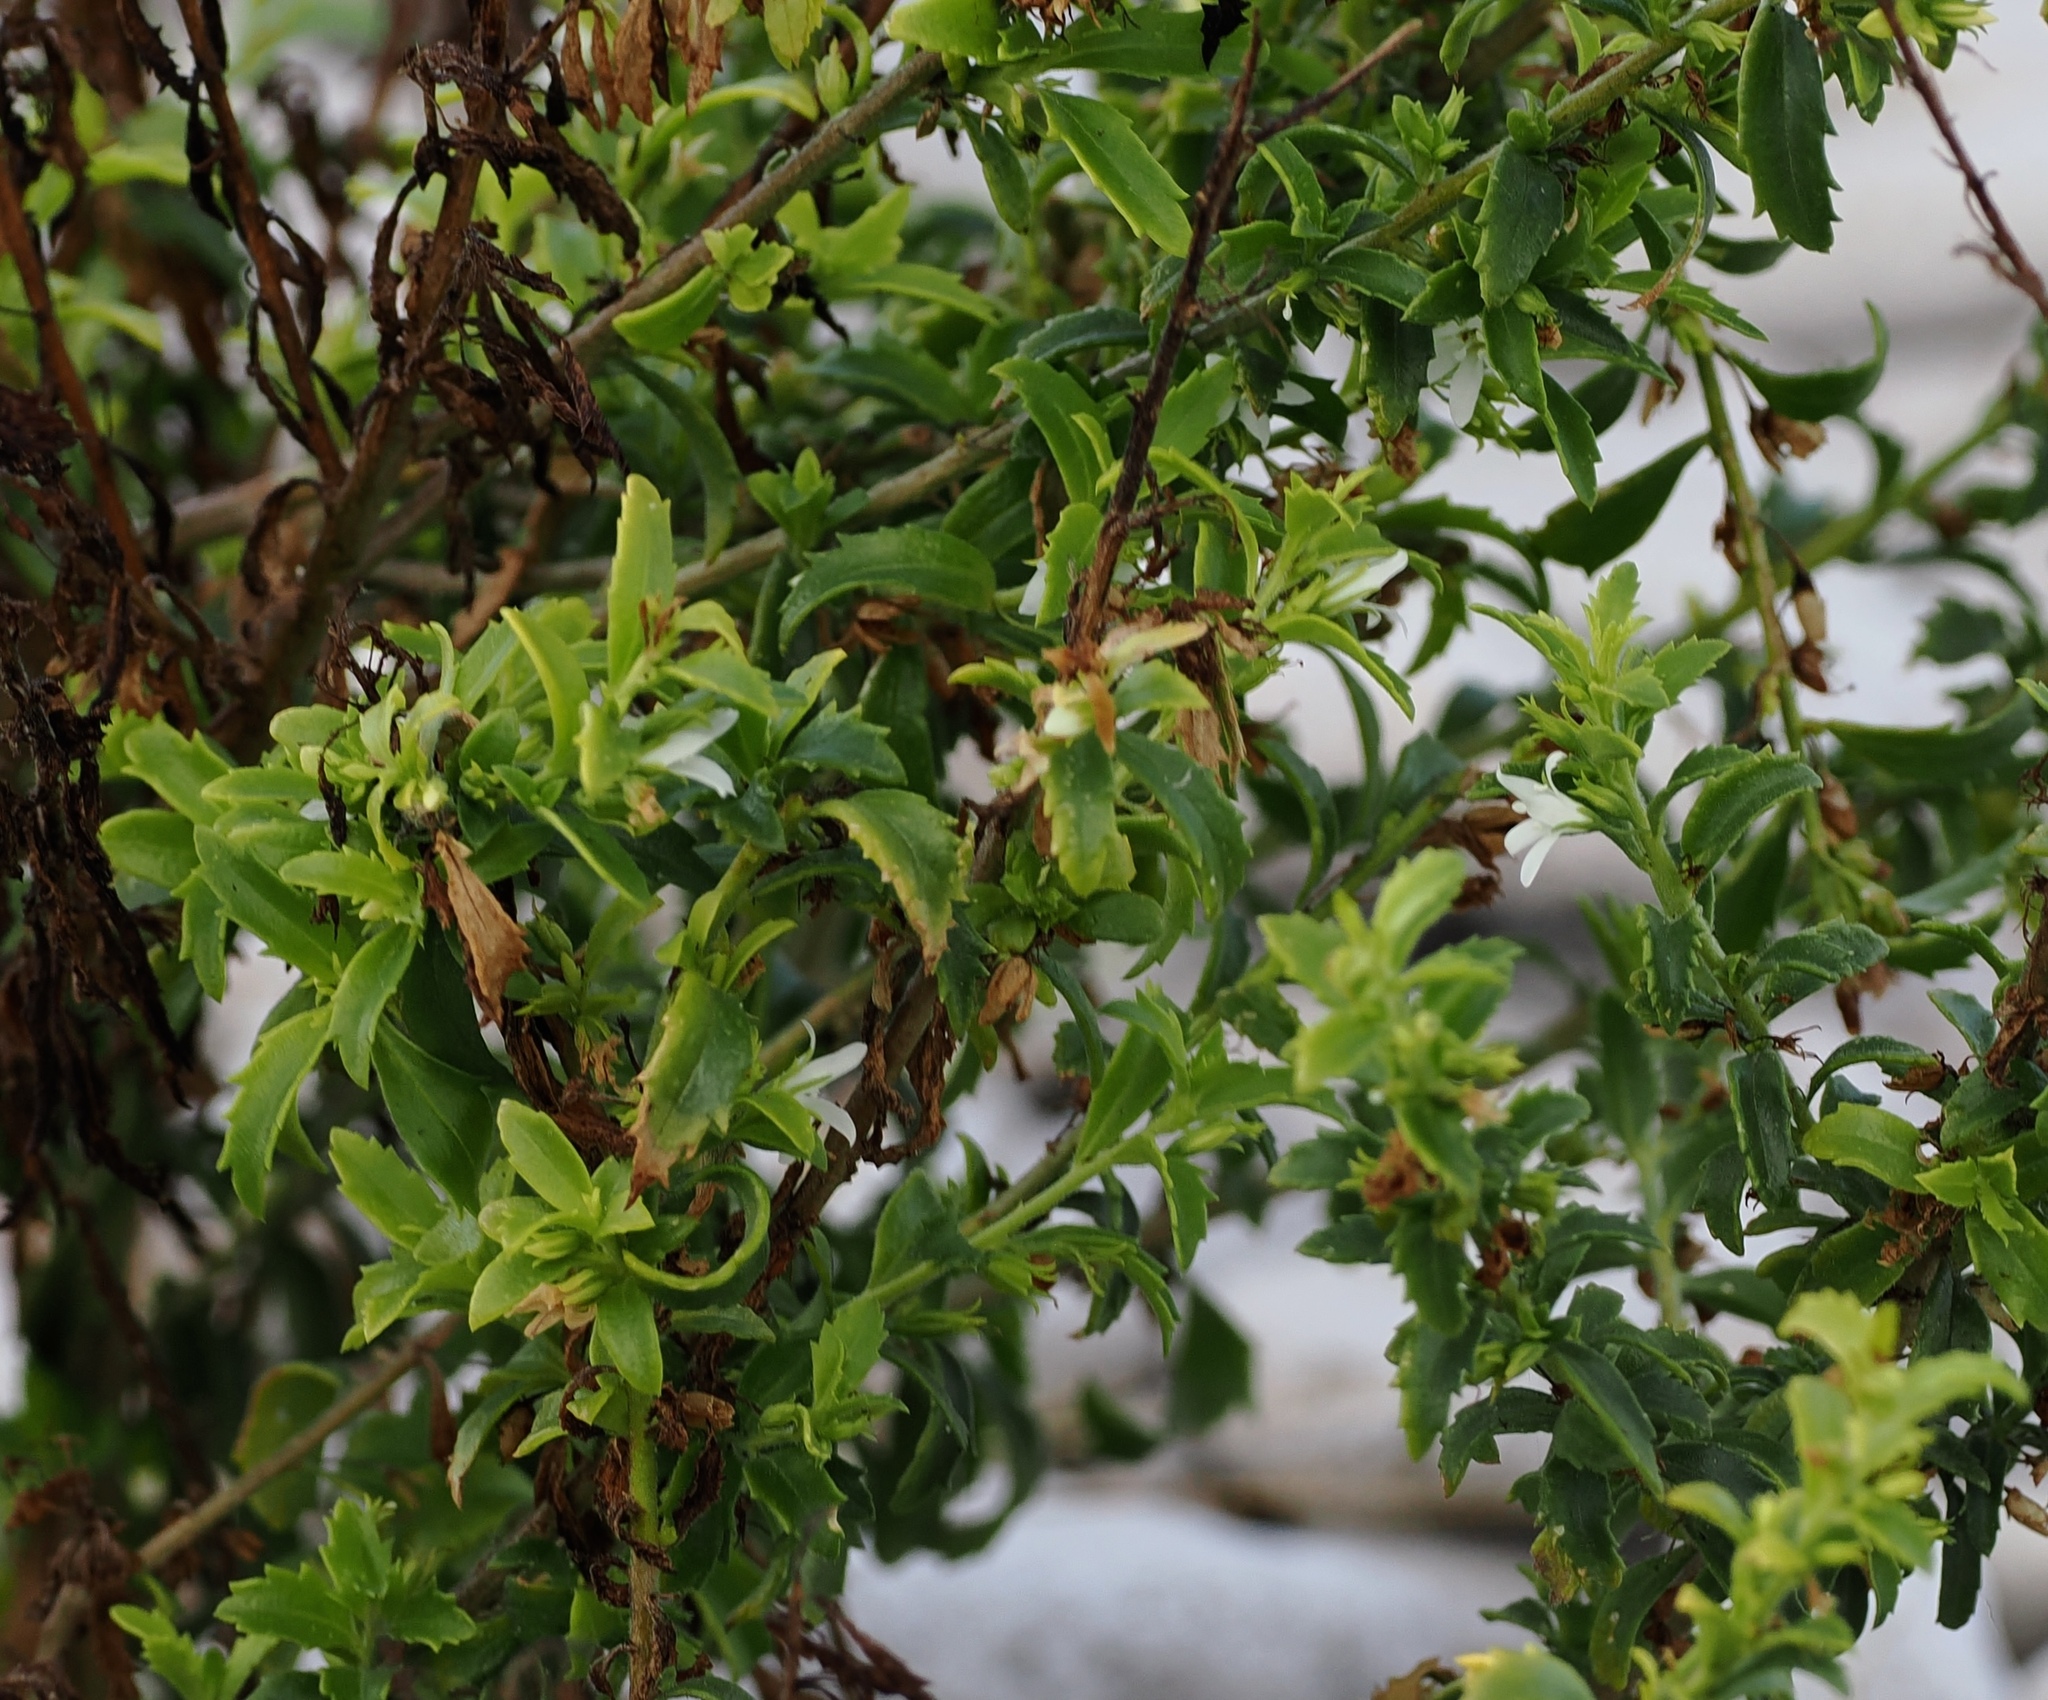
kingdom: Plantae
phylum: Tracheophyta
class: Magnoliopsida
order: Lamiales
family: Scrophulariaceae
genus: Capraria
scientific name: Capraria biflora
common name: Goatweed
